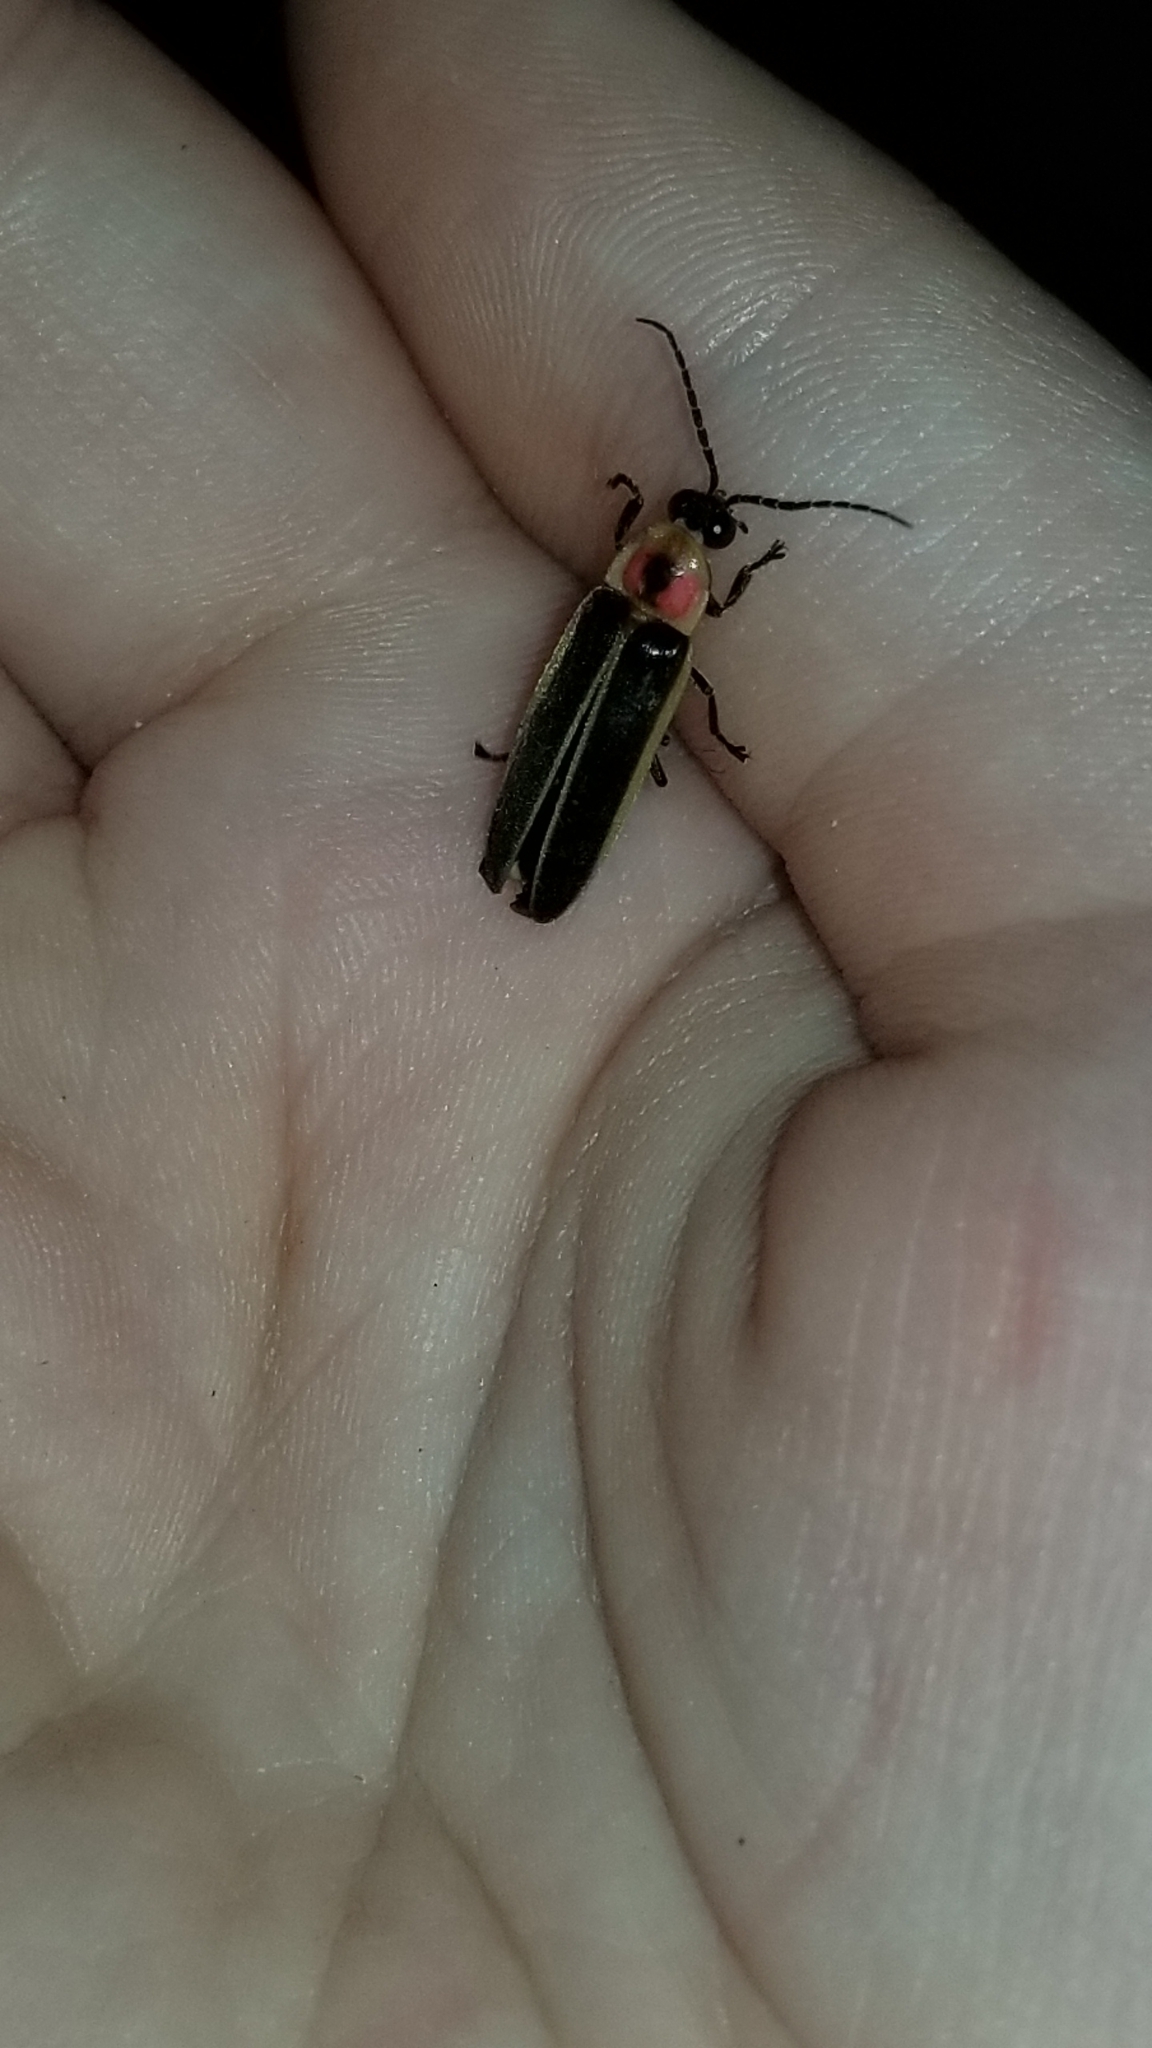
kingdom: Animalia
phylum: Arthropoda
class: Insecta
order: Coleoptera
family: Lampyridae
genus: Photinus
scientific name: Photinus pyralis
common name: Big dipper firefly
